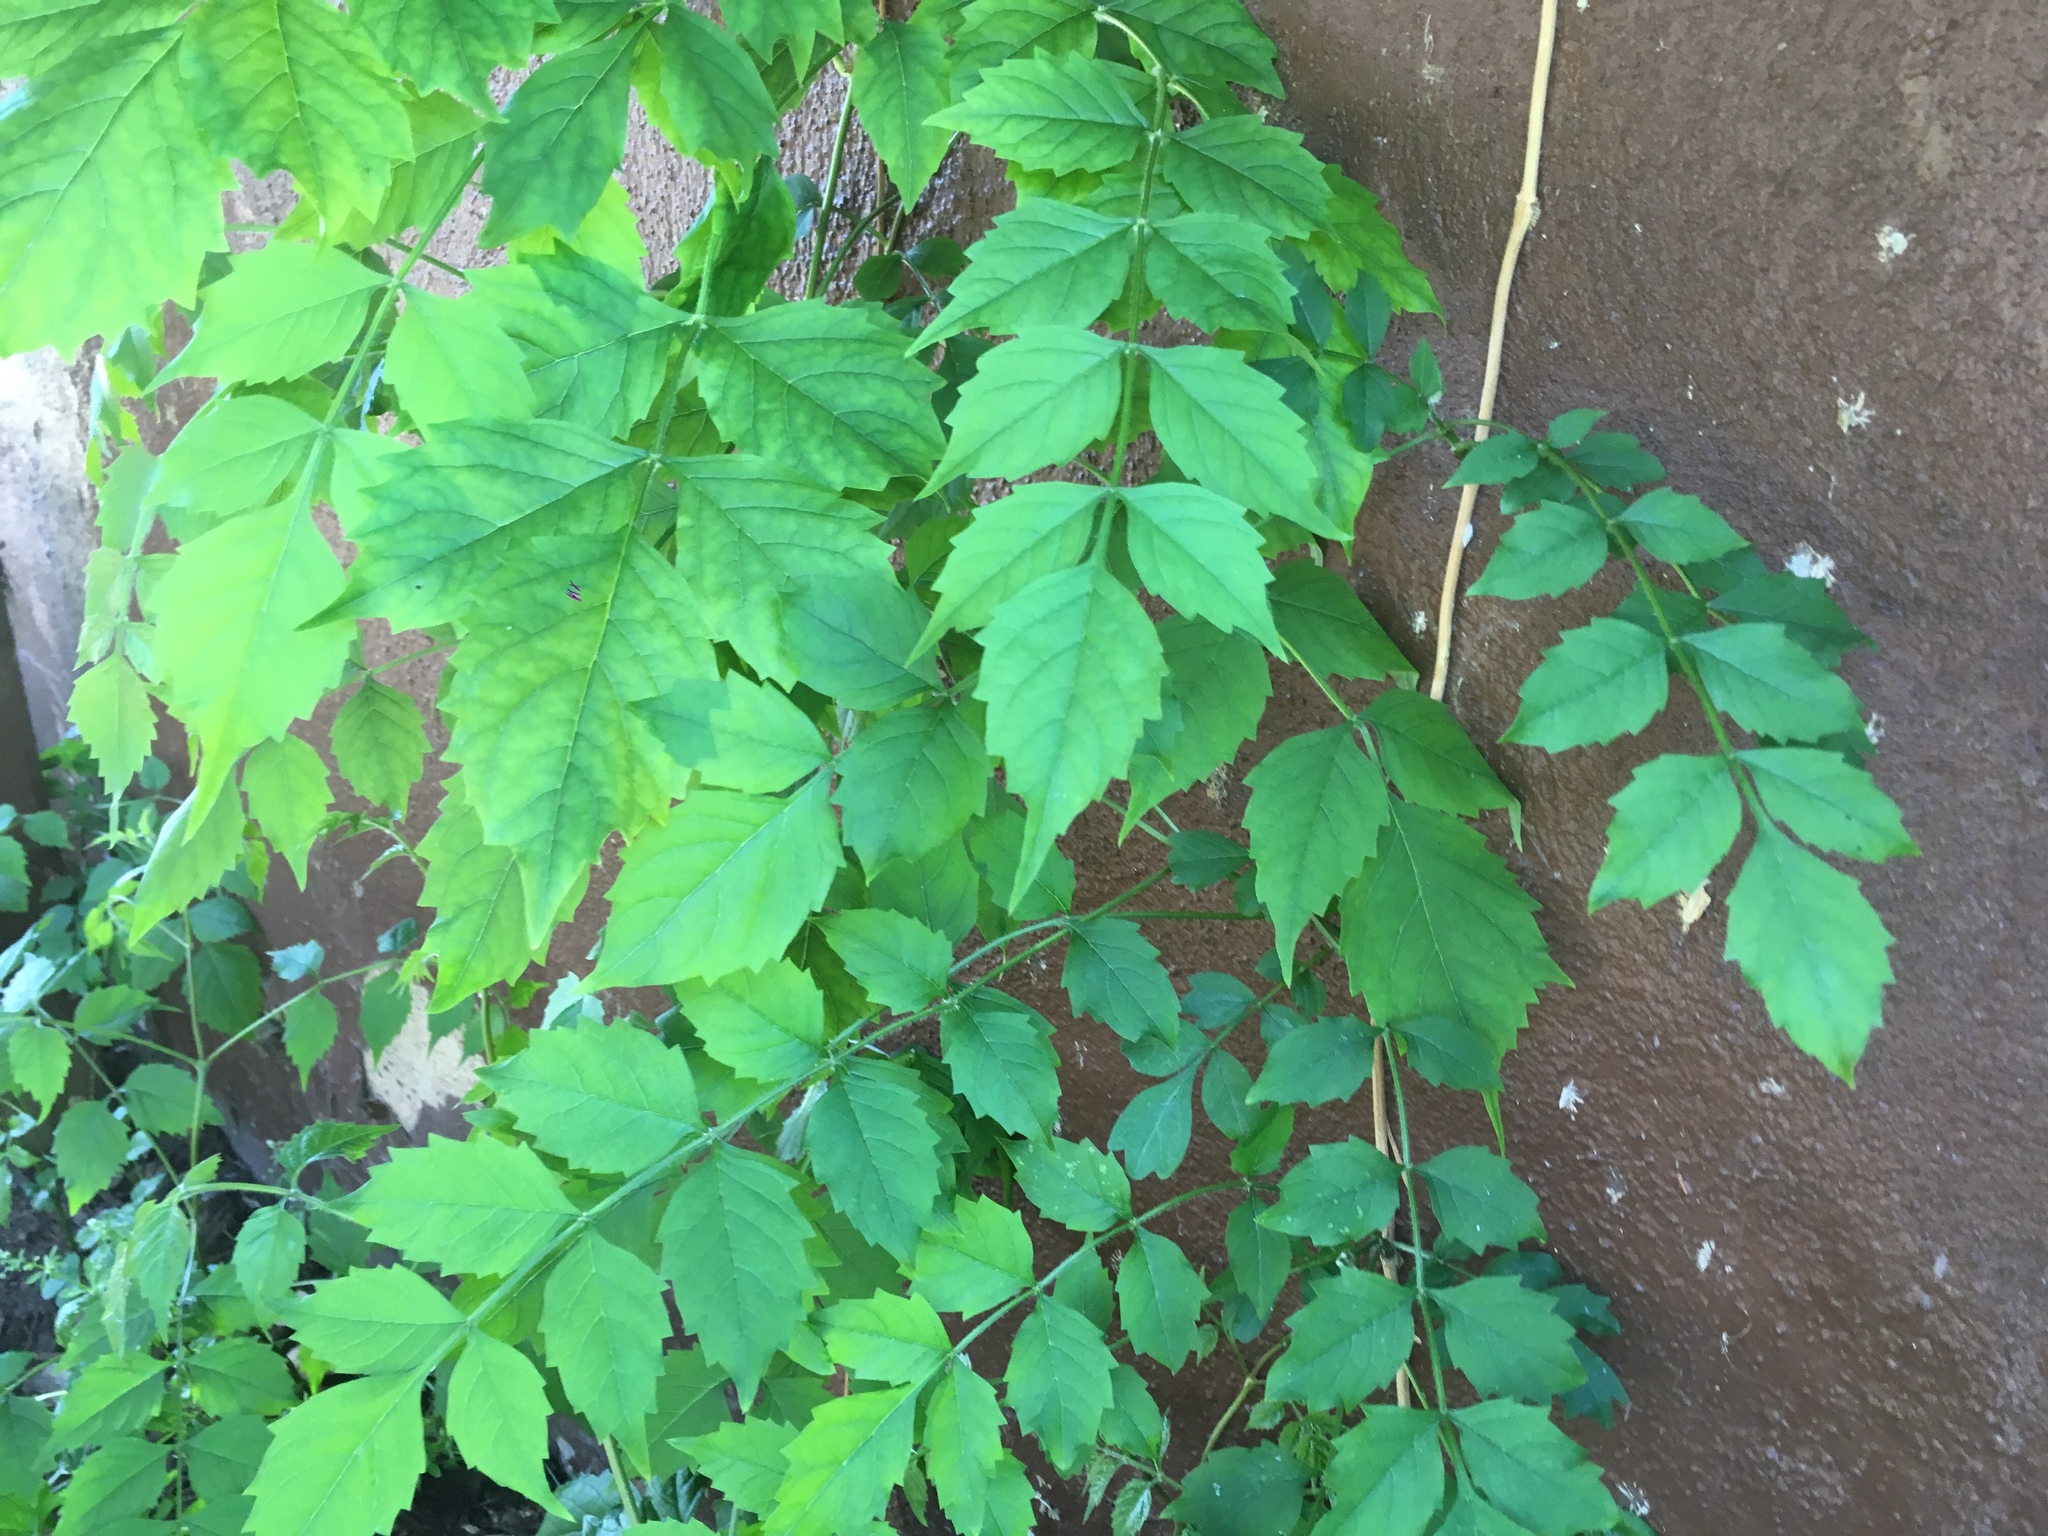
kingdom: Plantae
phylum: Tracheophyta
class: Magnoliopsida
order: Lamiales
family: Bignoniaceae
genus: Campsis
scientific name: Campsis radicans
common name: Trumpet-creeper
